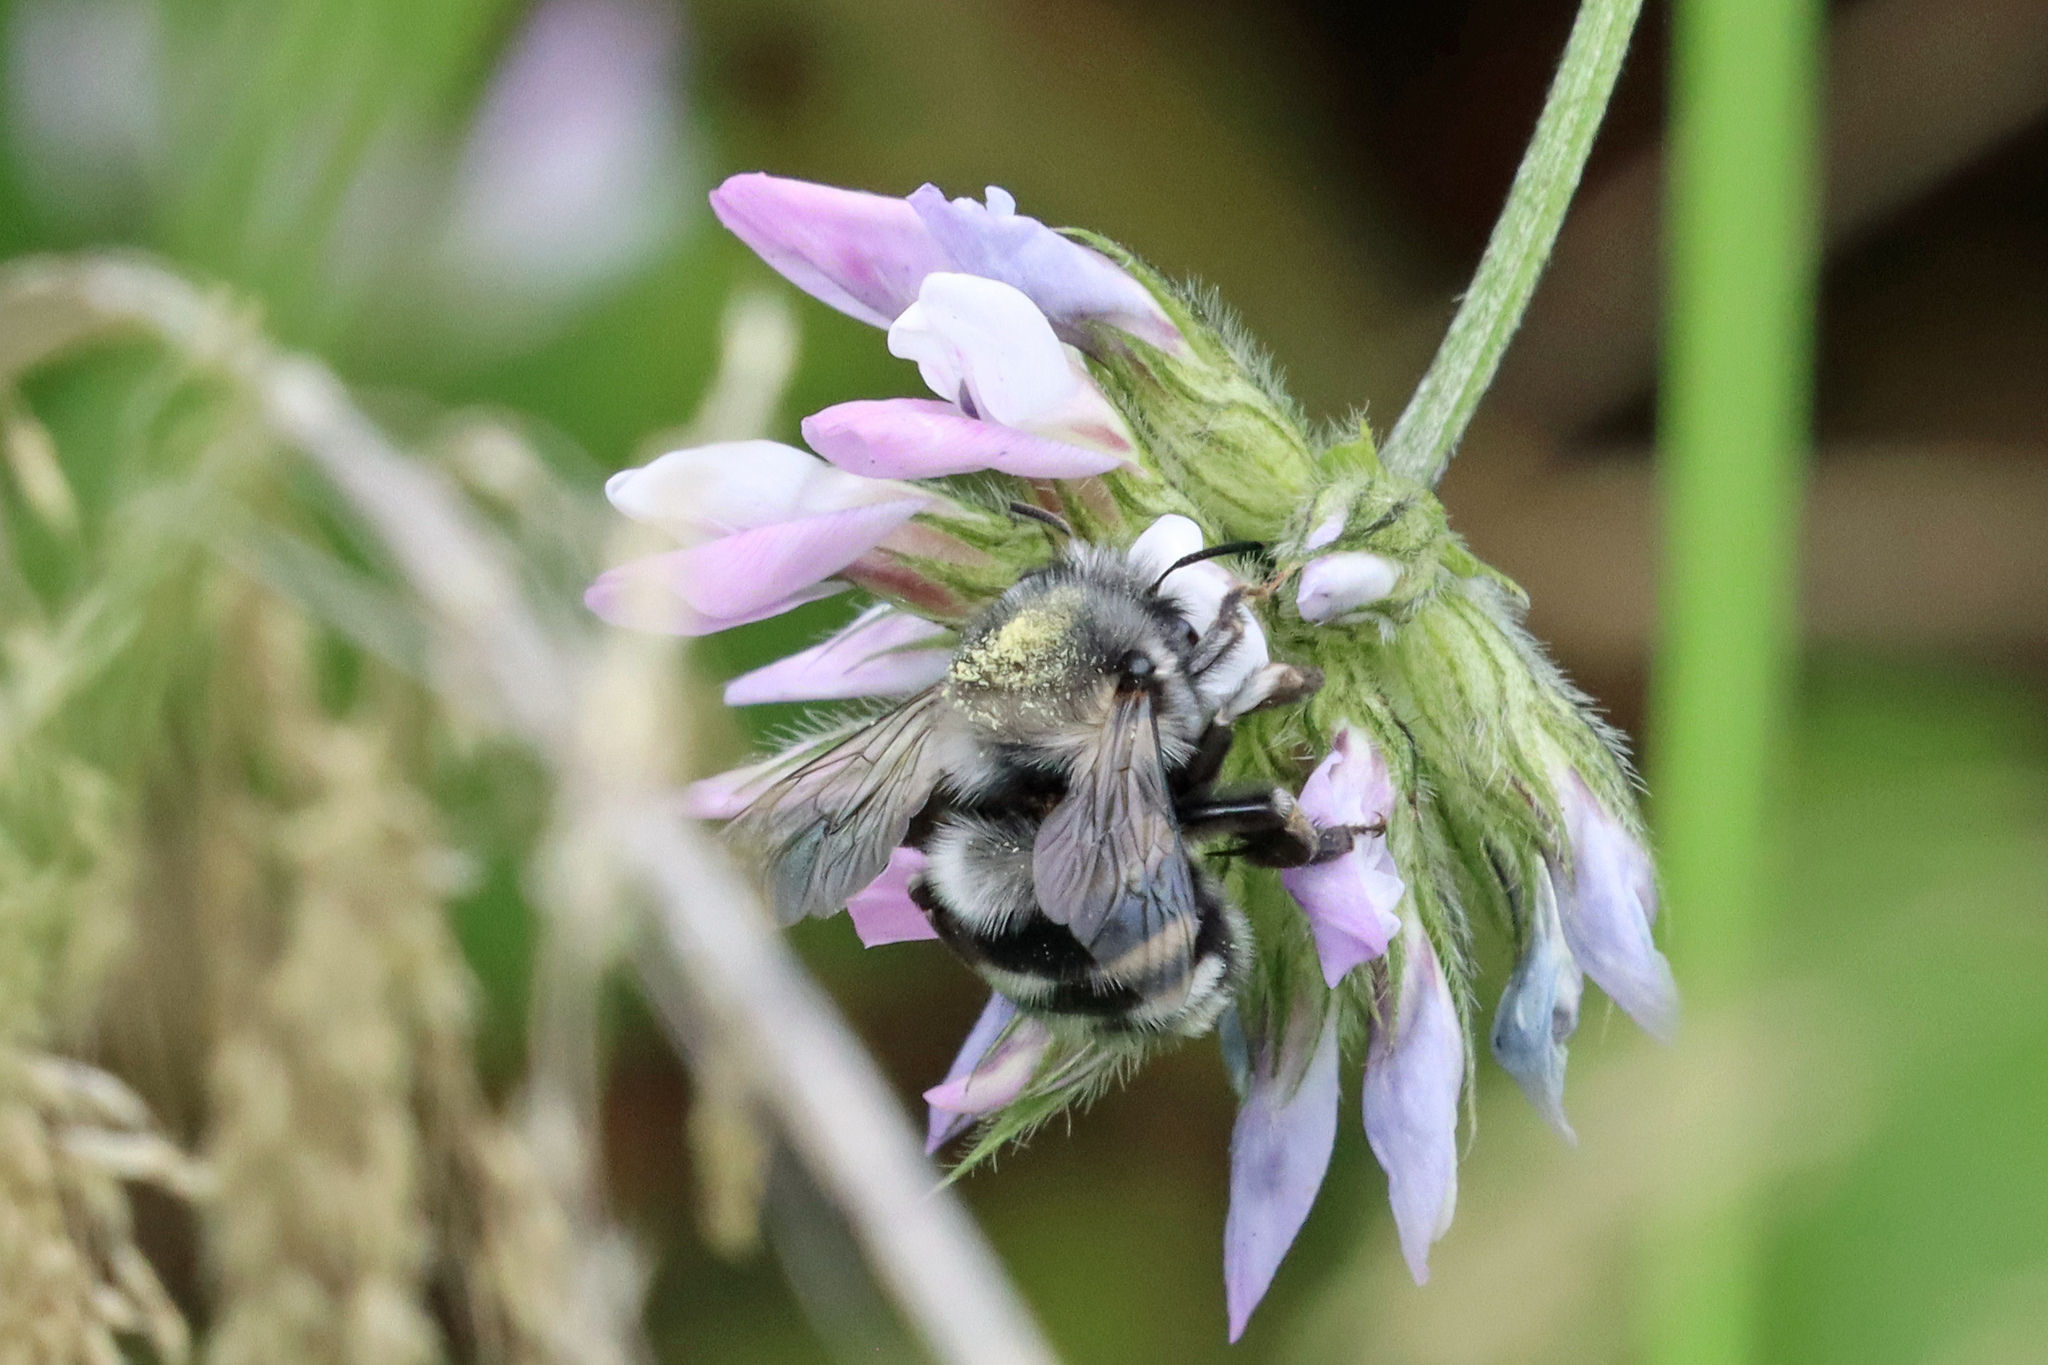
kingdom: Animalia
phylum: Arthropoda
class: Insecta
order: Hymenoptera
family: Apidae
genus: Anthophora
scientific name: Anthophora alluaudi
